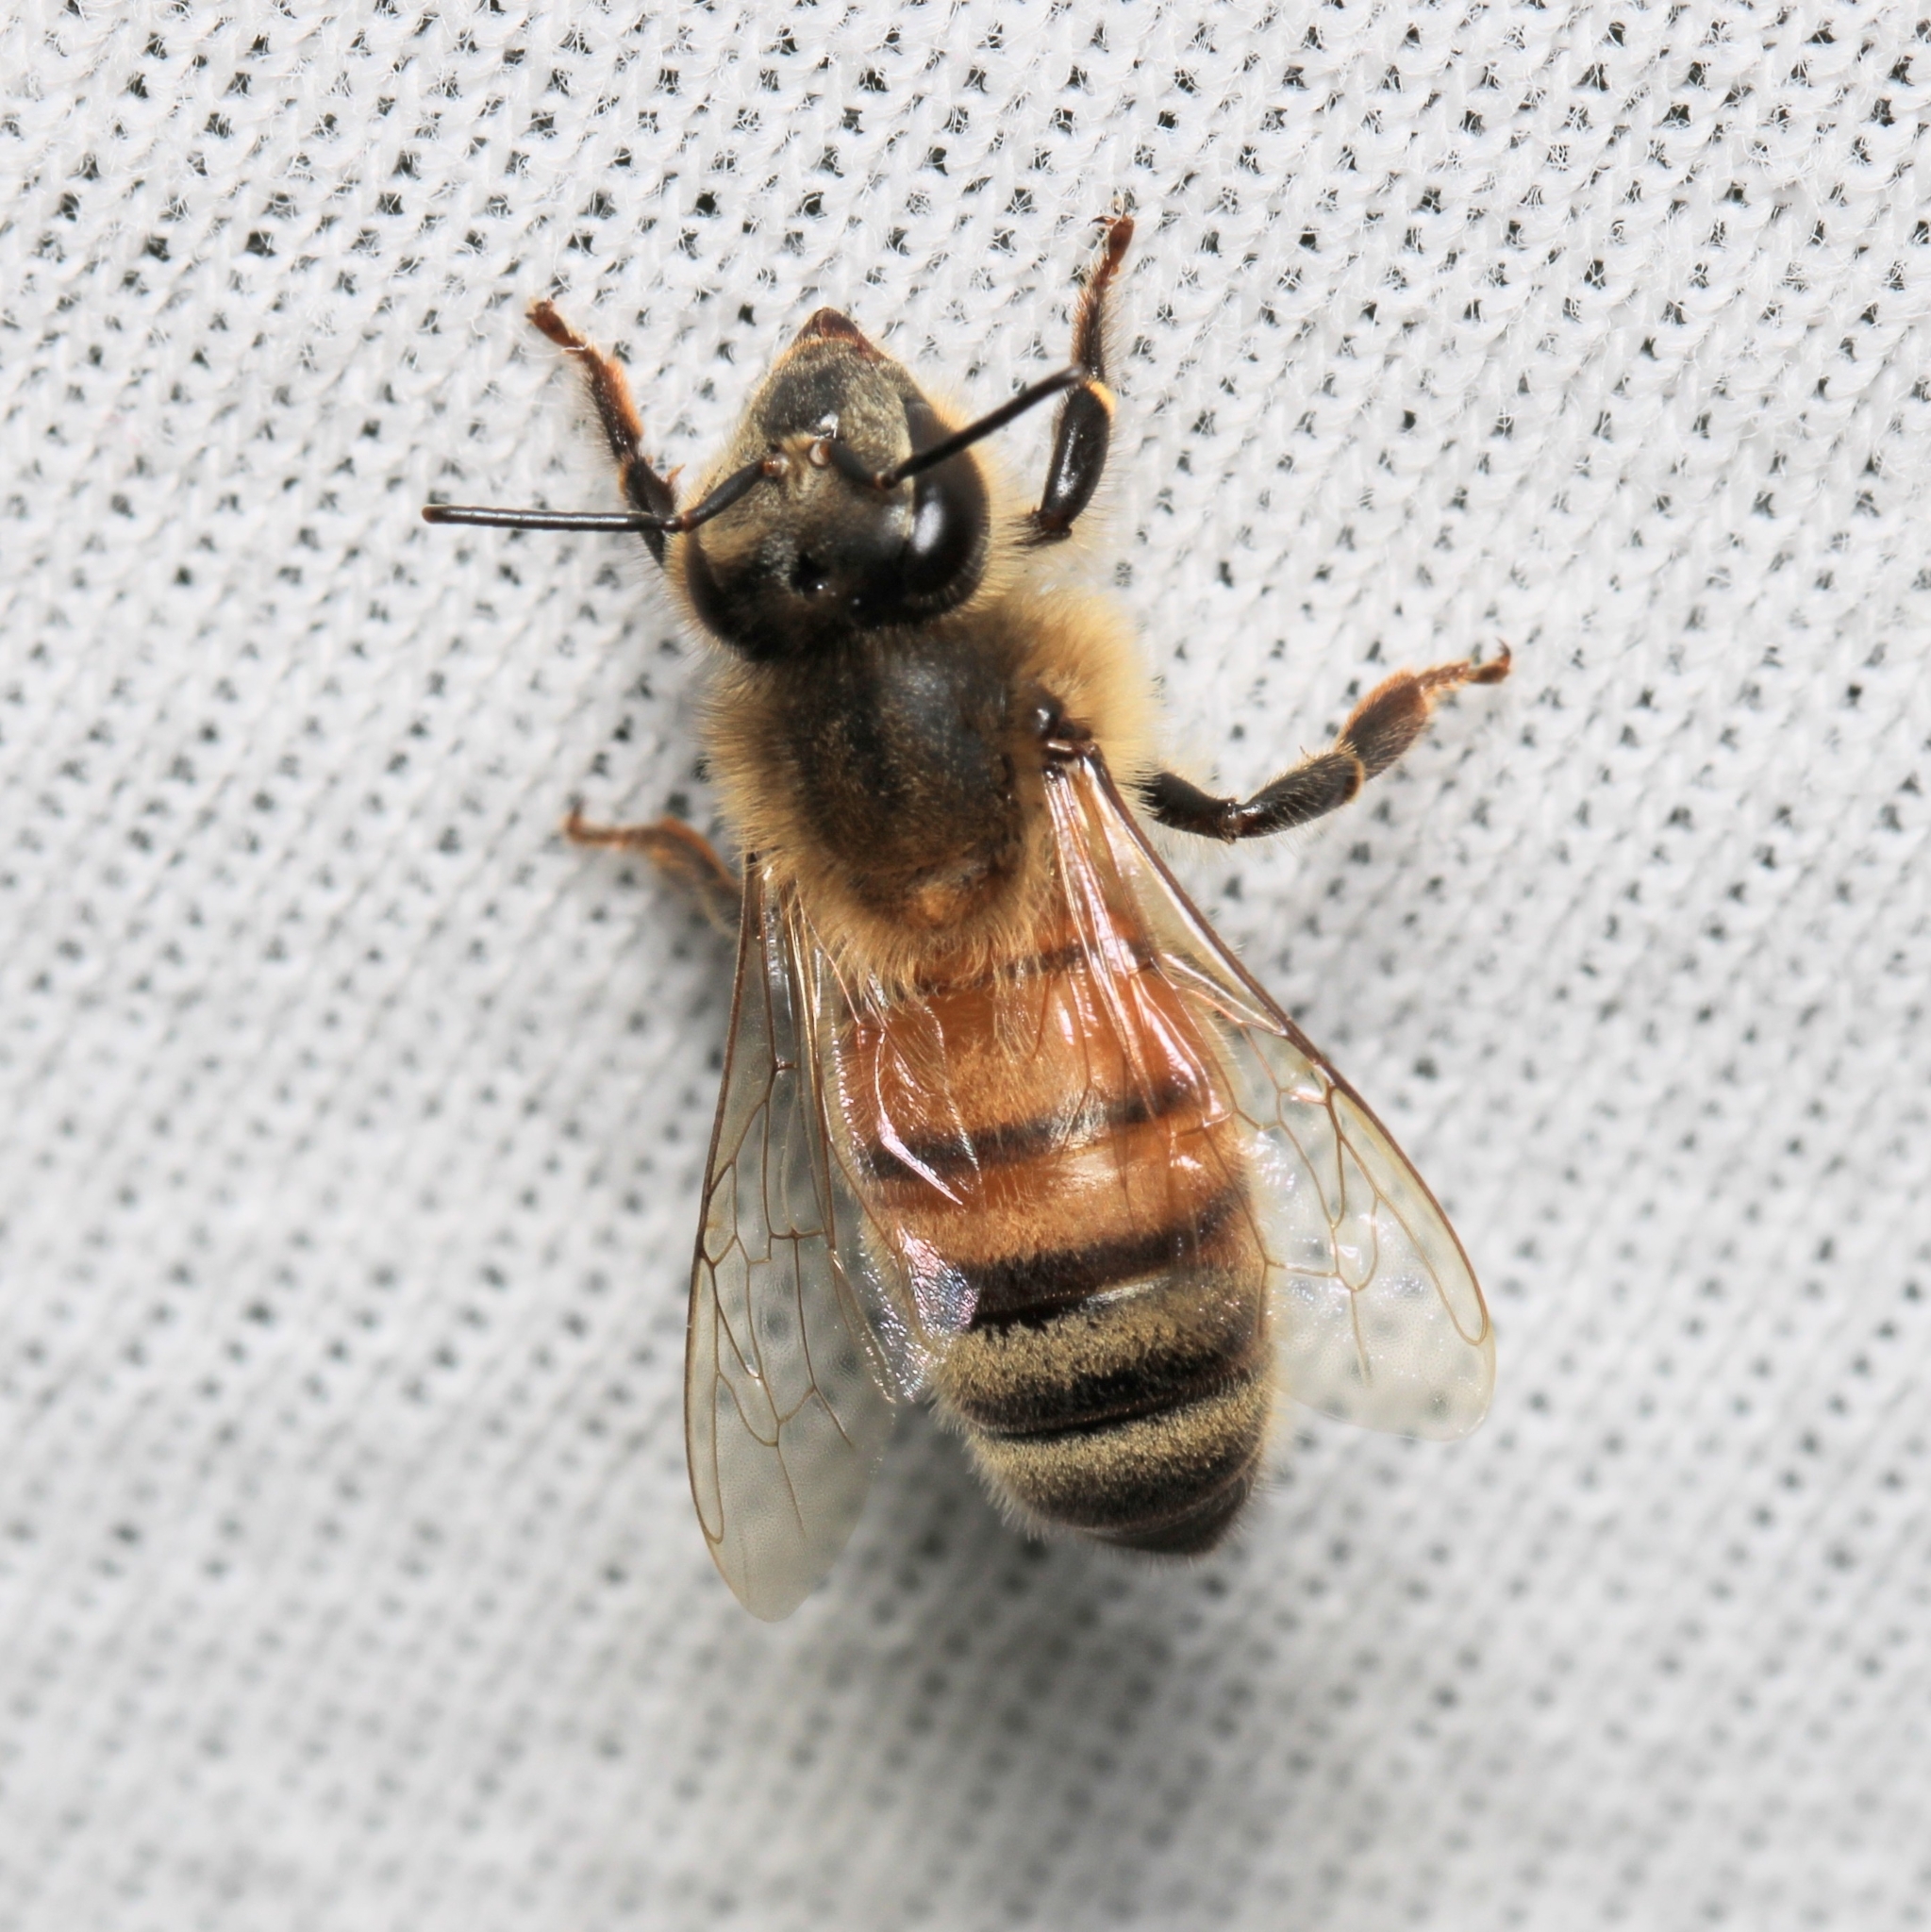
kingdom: Animalia
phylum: Arthropoda
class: Insecta
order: Hymenoptera
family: Apidae
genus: Apis
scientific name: Apis mellifera
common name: Honey bee
